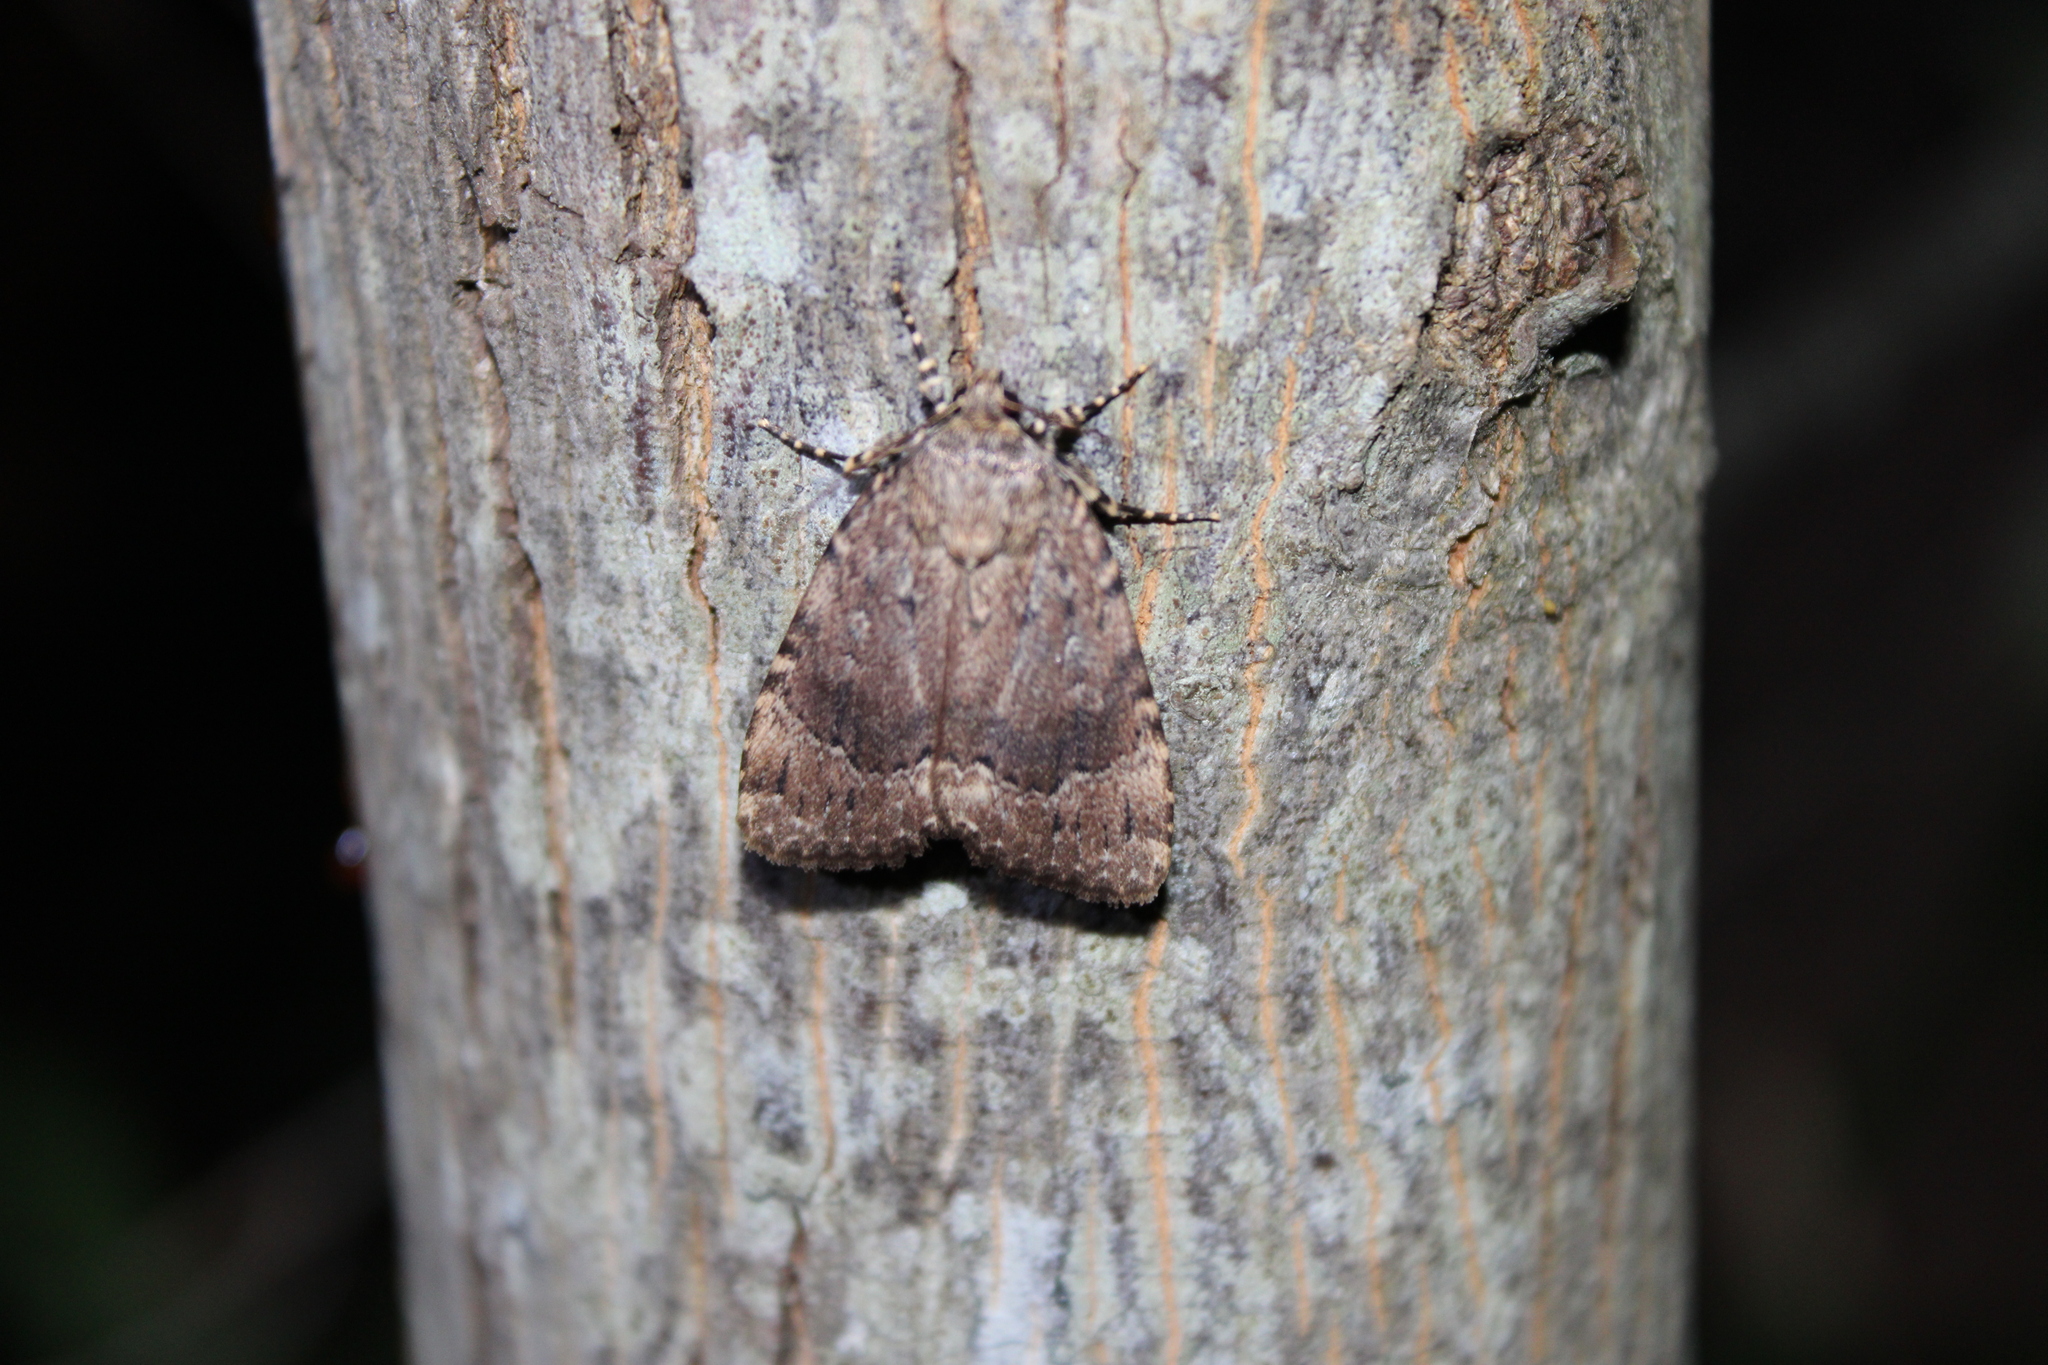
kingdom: Animalia
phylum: Arthropoda
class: Insecta
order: Lepidoptera
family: Noctuidae
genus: Amphipyra
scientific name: Amphipyra pyramidoides
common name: American copper underwing
